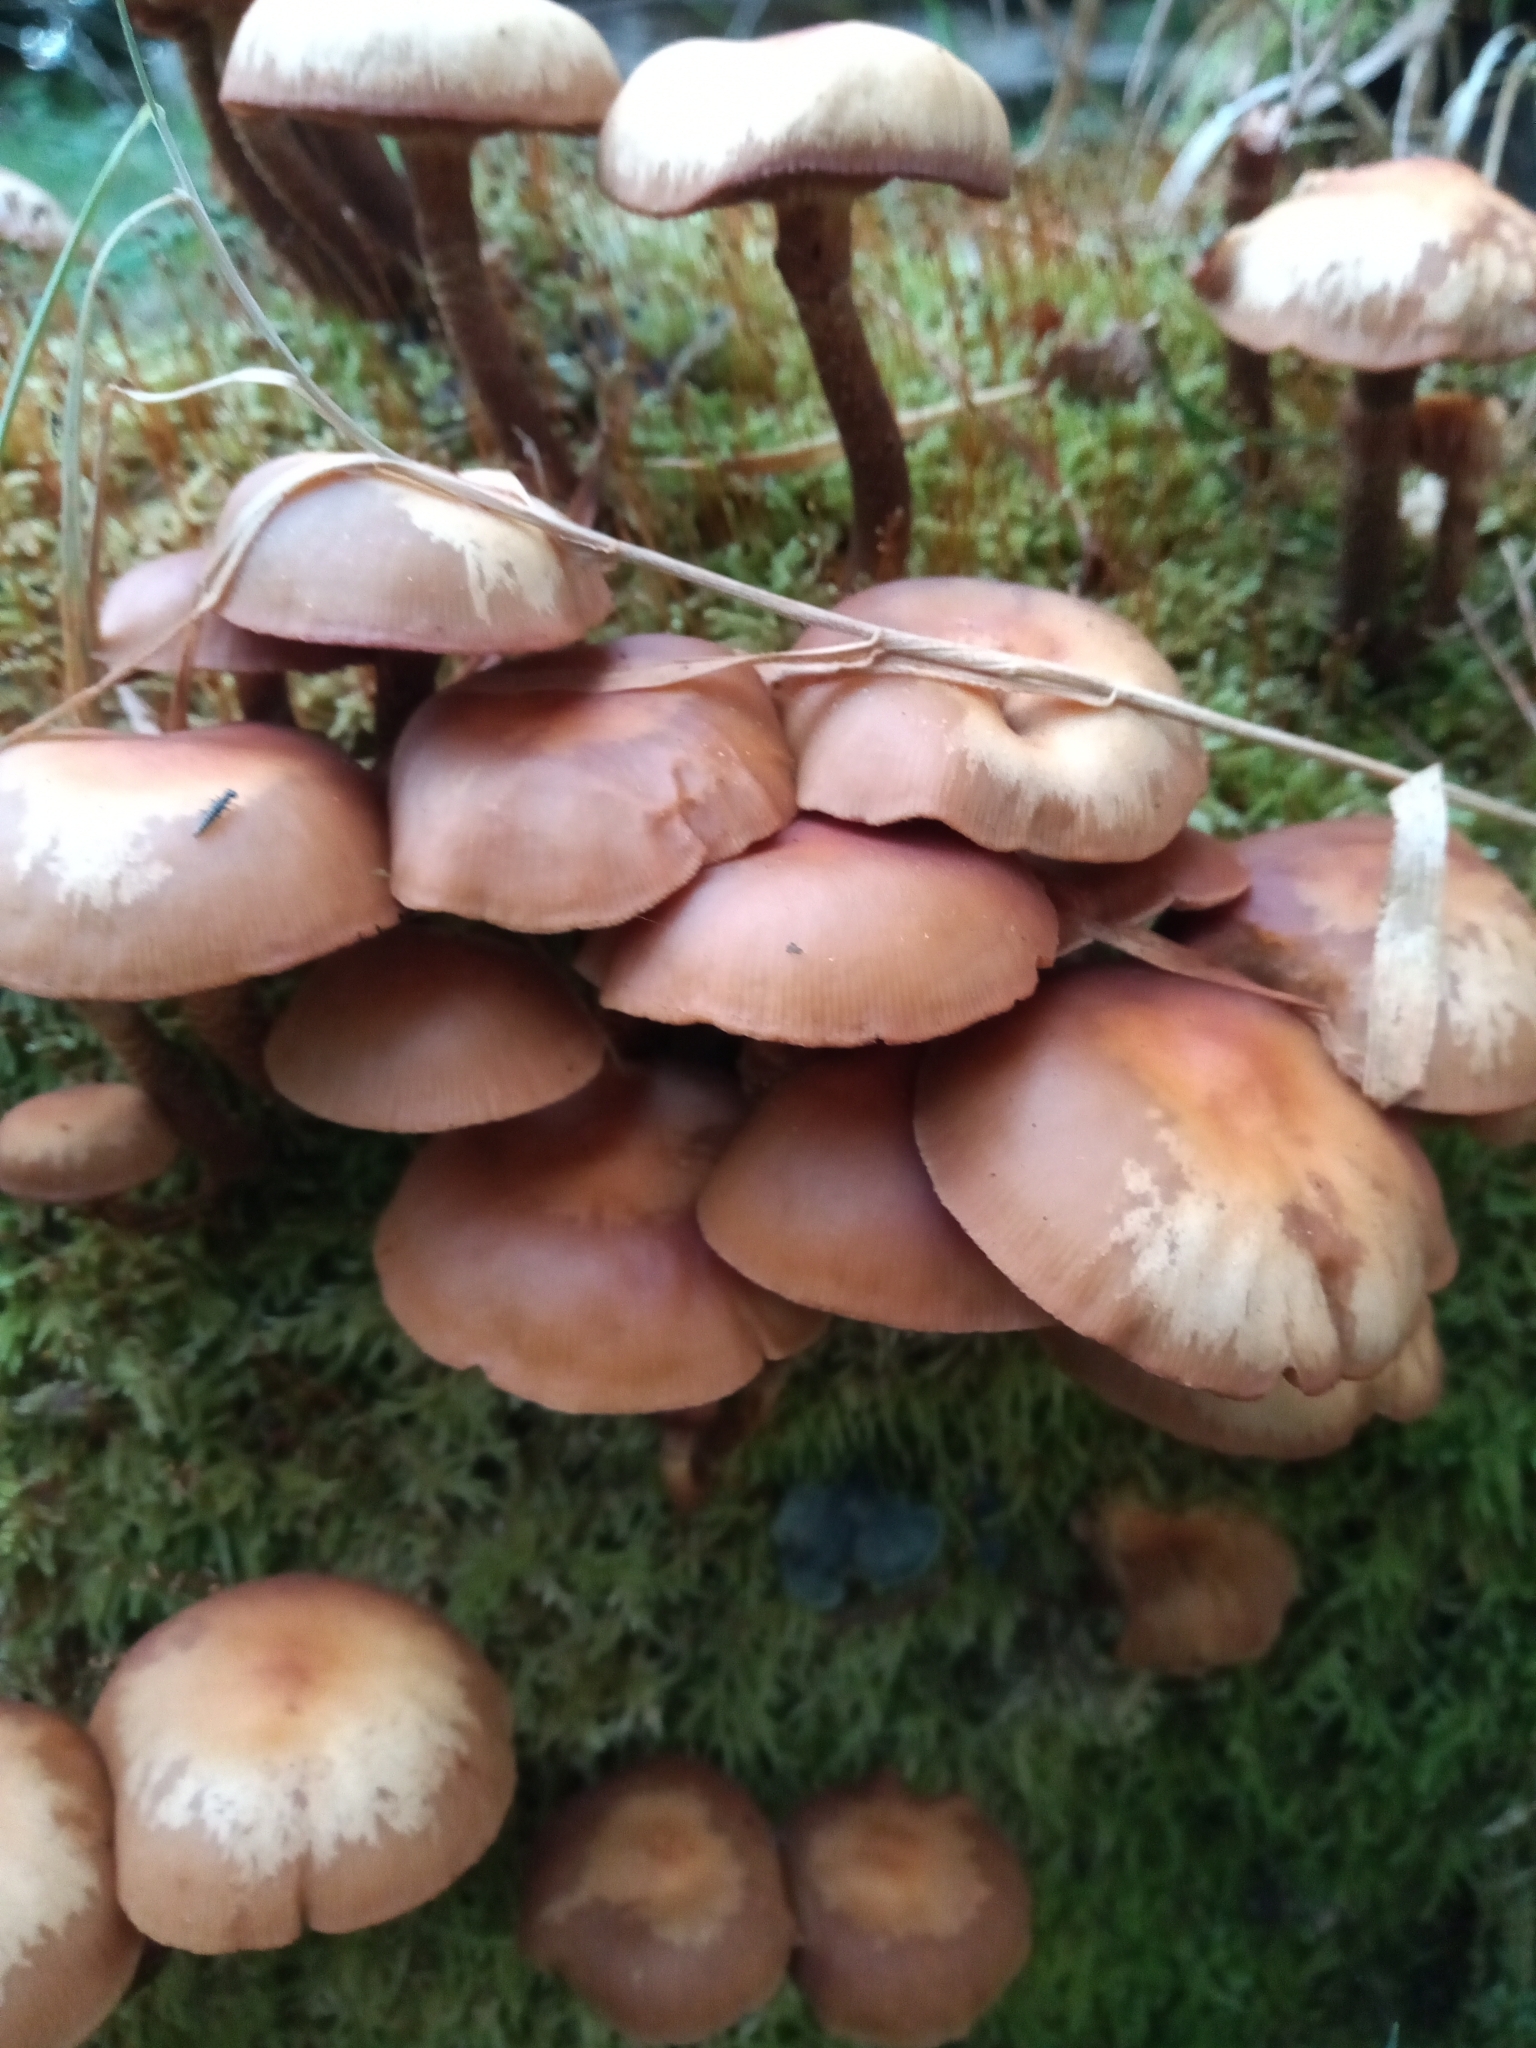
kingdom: Fungi
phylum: Basidiomycota
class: Agaricomycetes
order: Agaricales
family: Strophariaceae
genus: Kuehneromyces
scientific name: Kuehneromyces mutabilis
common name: Sheathed woodtuft
